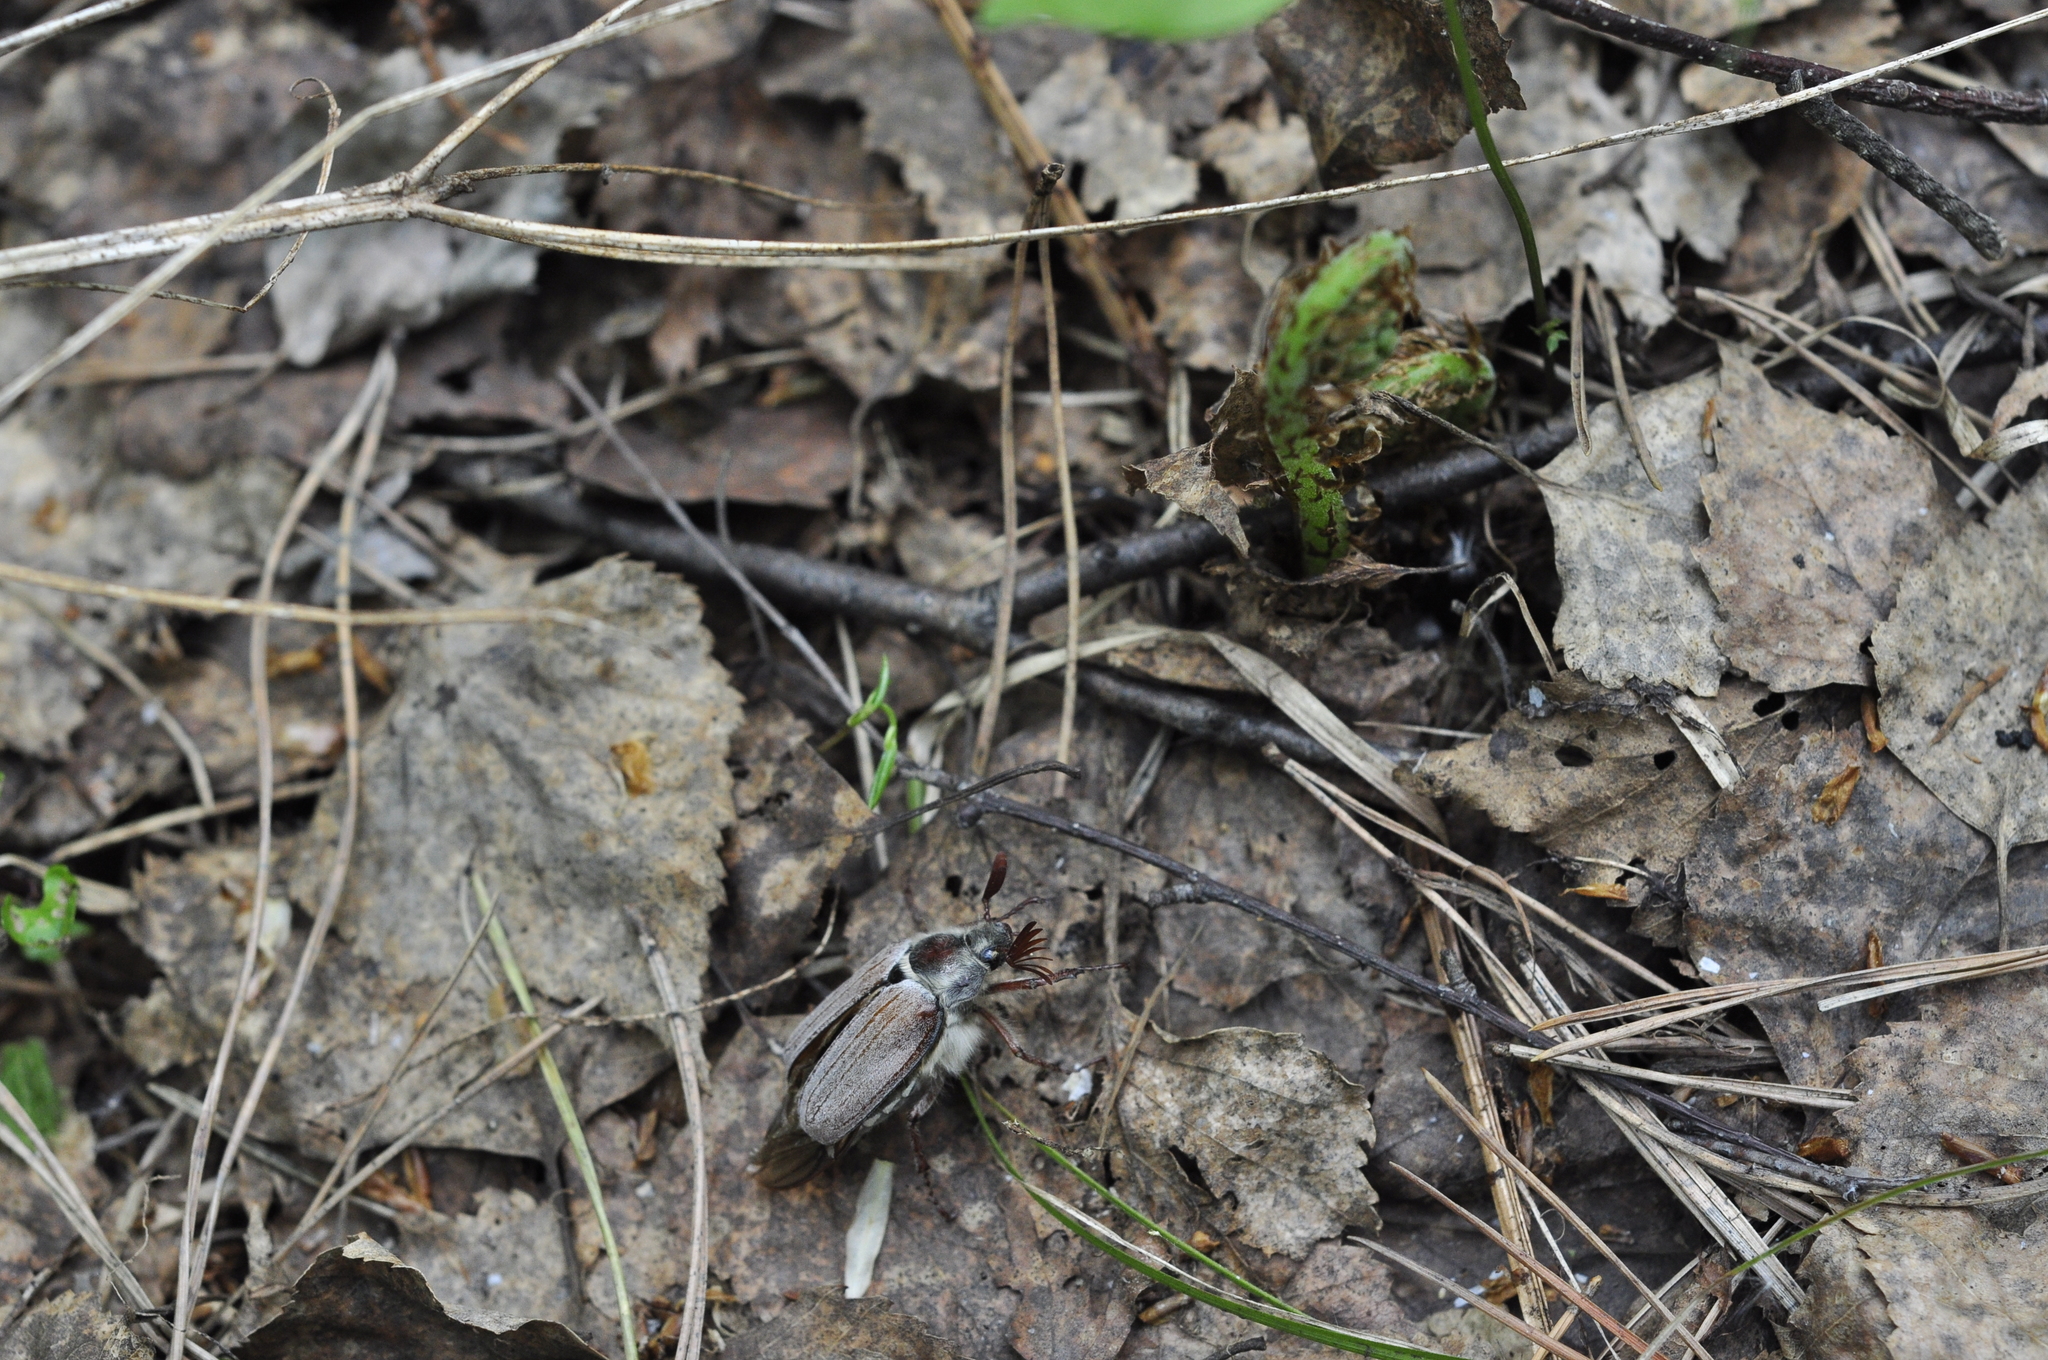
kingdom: Animalia
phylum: Arthropoda
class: Insecta
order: Coleoptera
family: Scarabaeidae
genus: Melolontha
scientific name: Melolontha hippocastani
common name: Chestnut cockchafer
